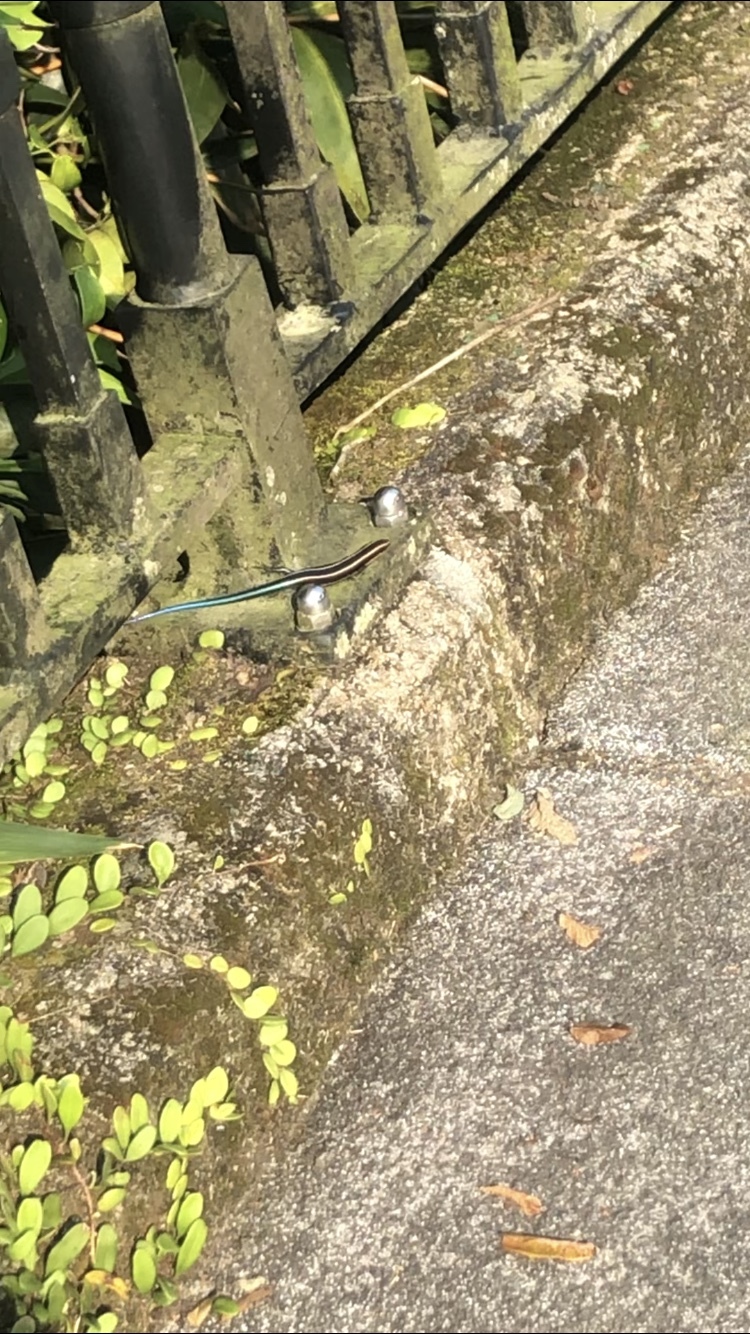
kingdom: Animalia
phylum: Chordata
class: Squamata
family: Scincidae
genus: Plestiodon
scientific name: Plestiodon quadrilineatus
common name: Four-striped skink
